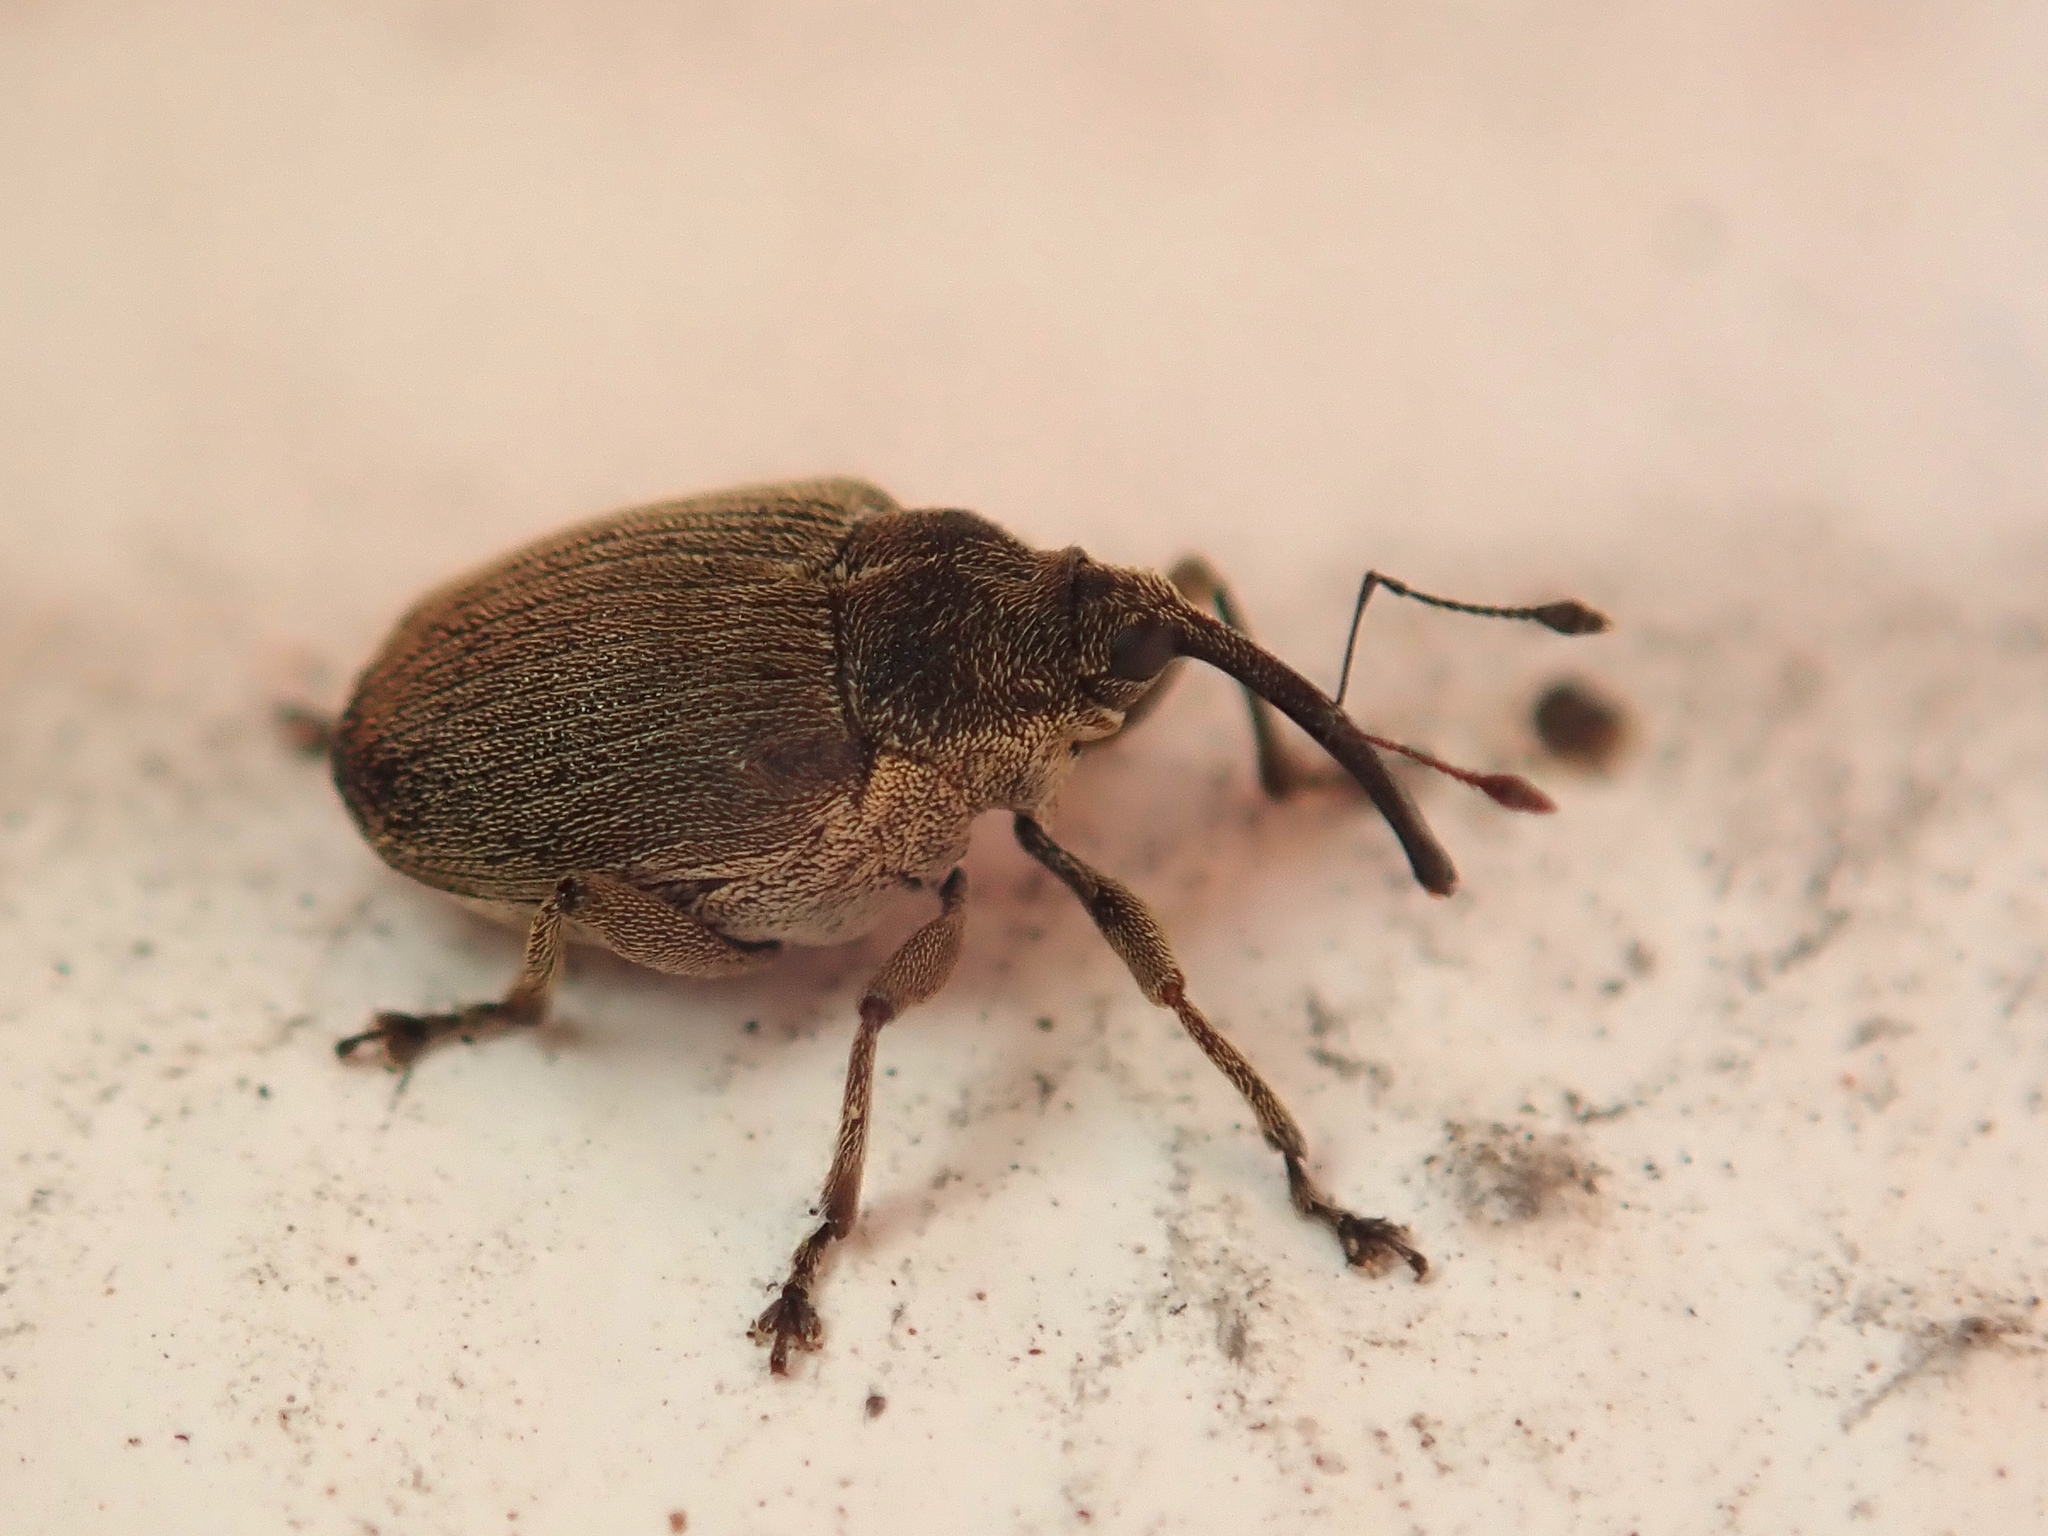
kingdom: Animalia
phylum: Arthropoda
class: Insecta
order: Coleoptera
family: Curculionidae
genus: Ceutorhynchus
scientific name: Ceutorhynchus napi
